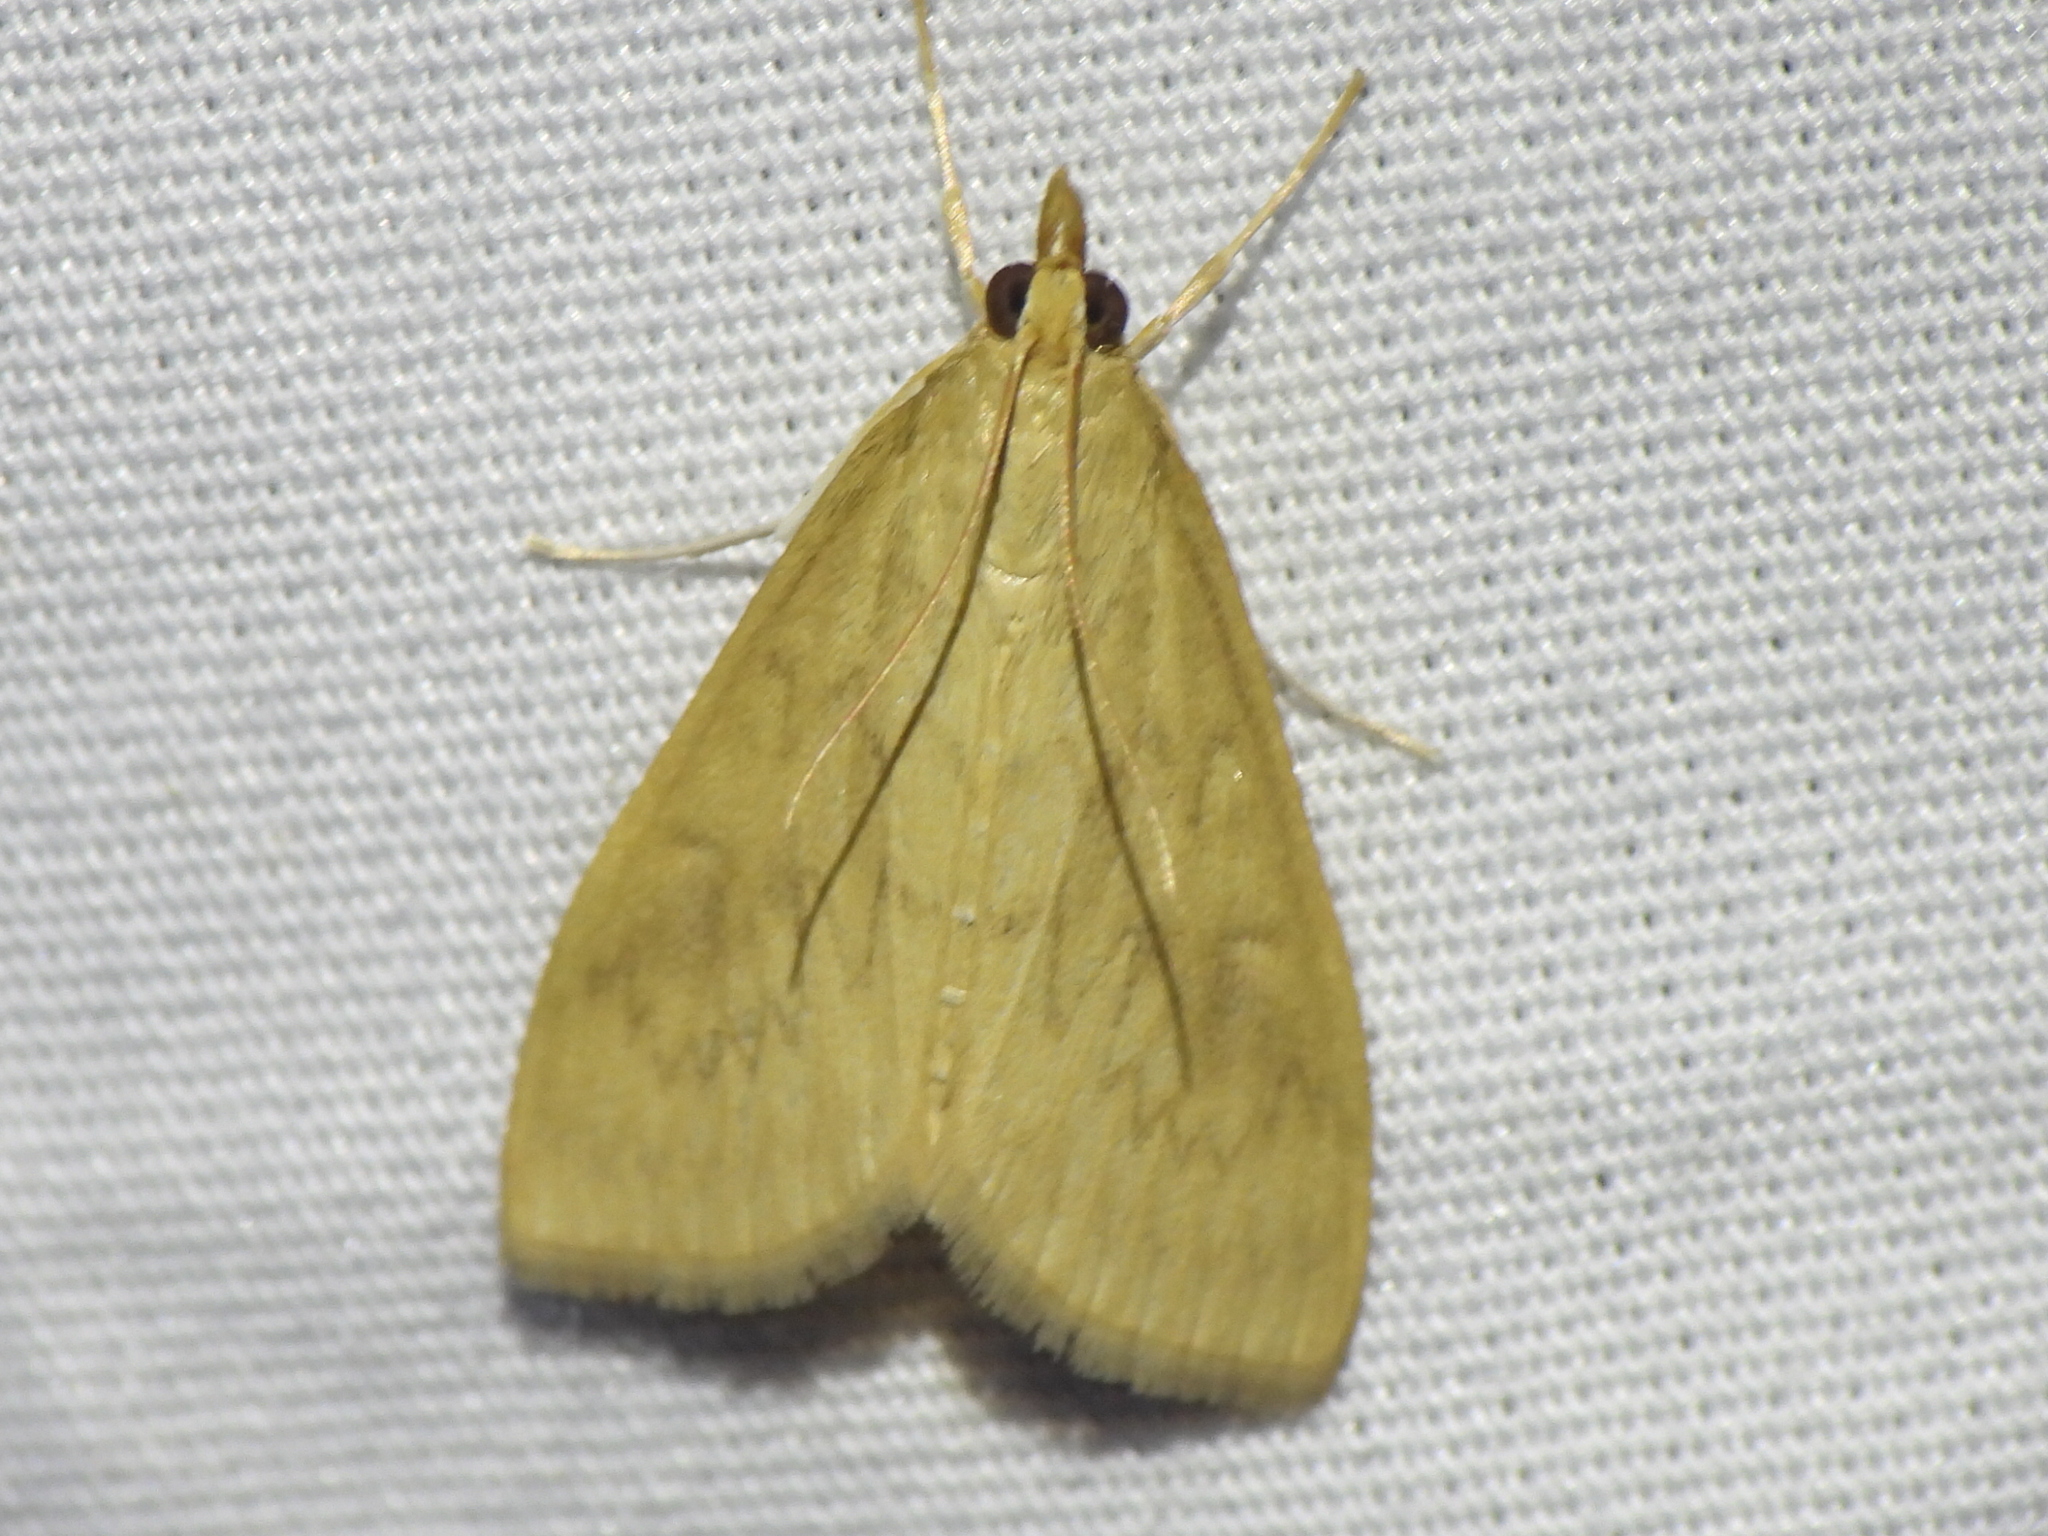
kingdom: Animalia
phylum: Arthropoda
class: Insecta
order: Lepidoptera
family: Crambidae
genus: Ostrinia
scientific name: Ostrinia penitalis
